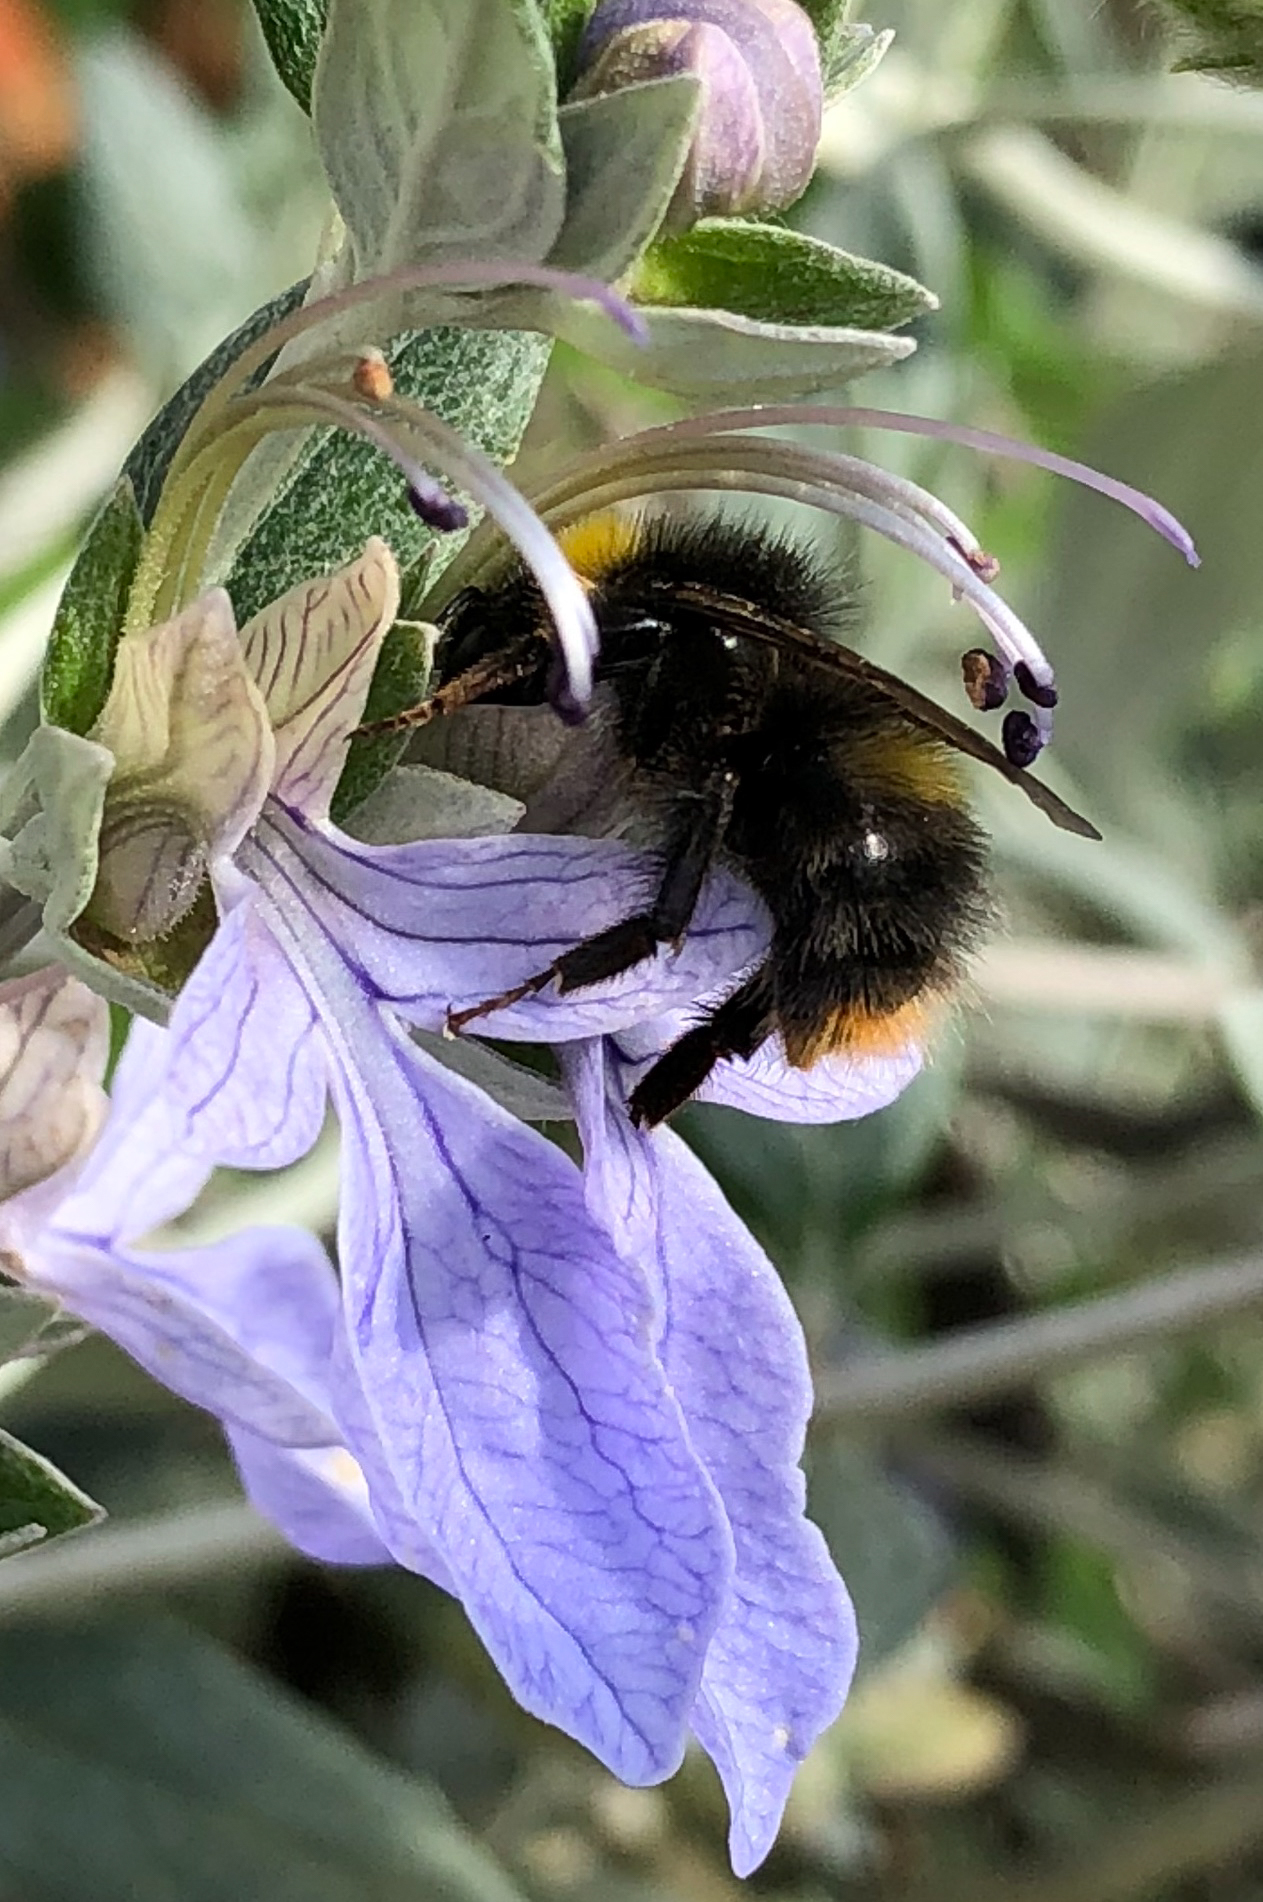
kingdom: Animalia
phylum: Arthropoda
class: Insecta
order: Hymenoptera
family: Apidae
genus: Bombus
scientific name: Bombus pratorum
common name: Early humble-bee
